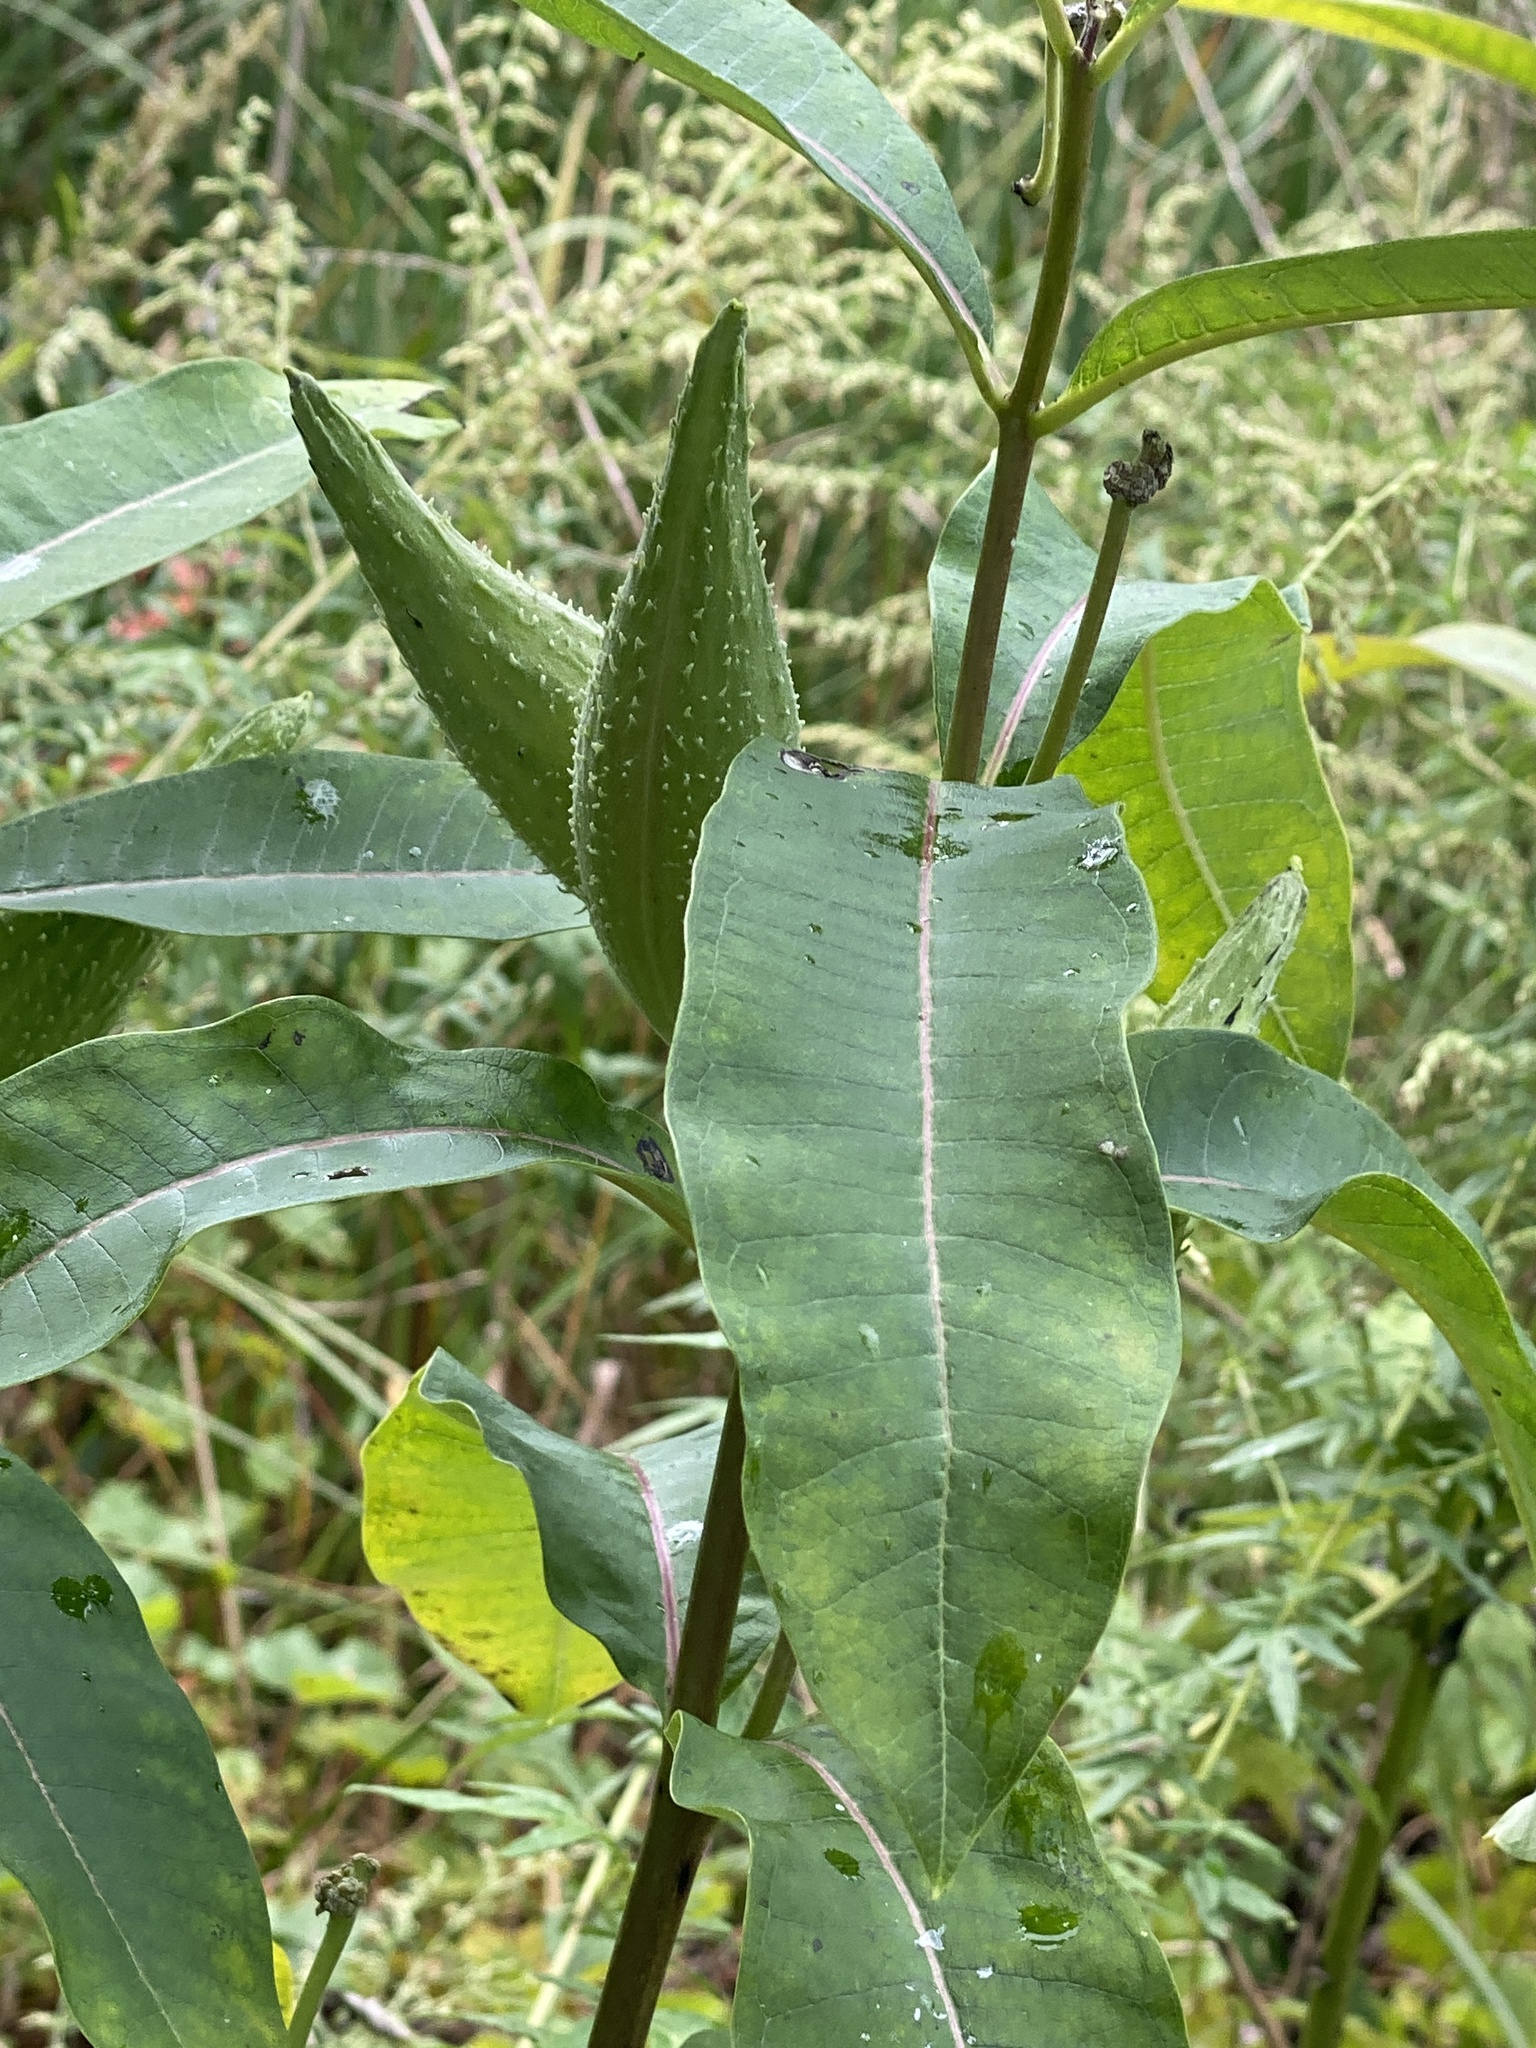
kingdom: Plantae
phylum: Tracheophyta
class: Magnoliopsida
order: Gentianales
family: Apocynaceae
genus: Asclepias
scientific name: Asclepias syriaca
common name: Common milkweed
